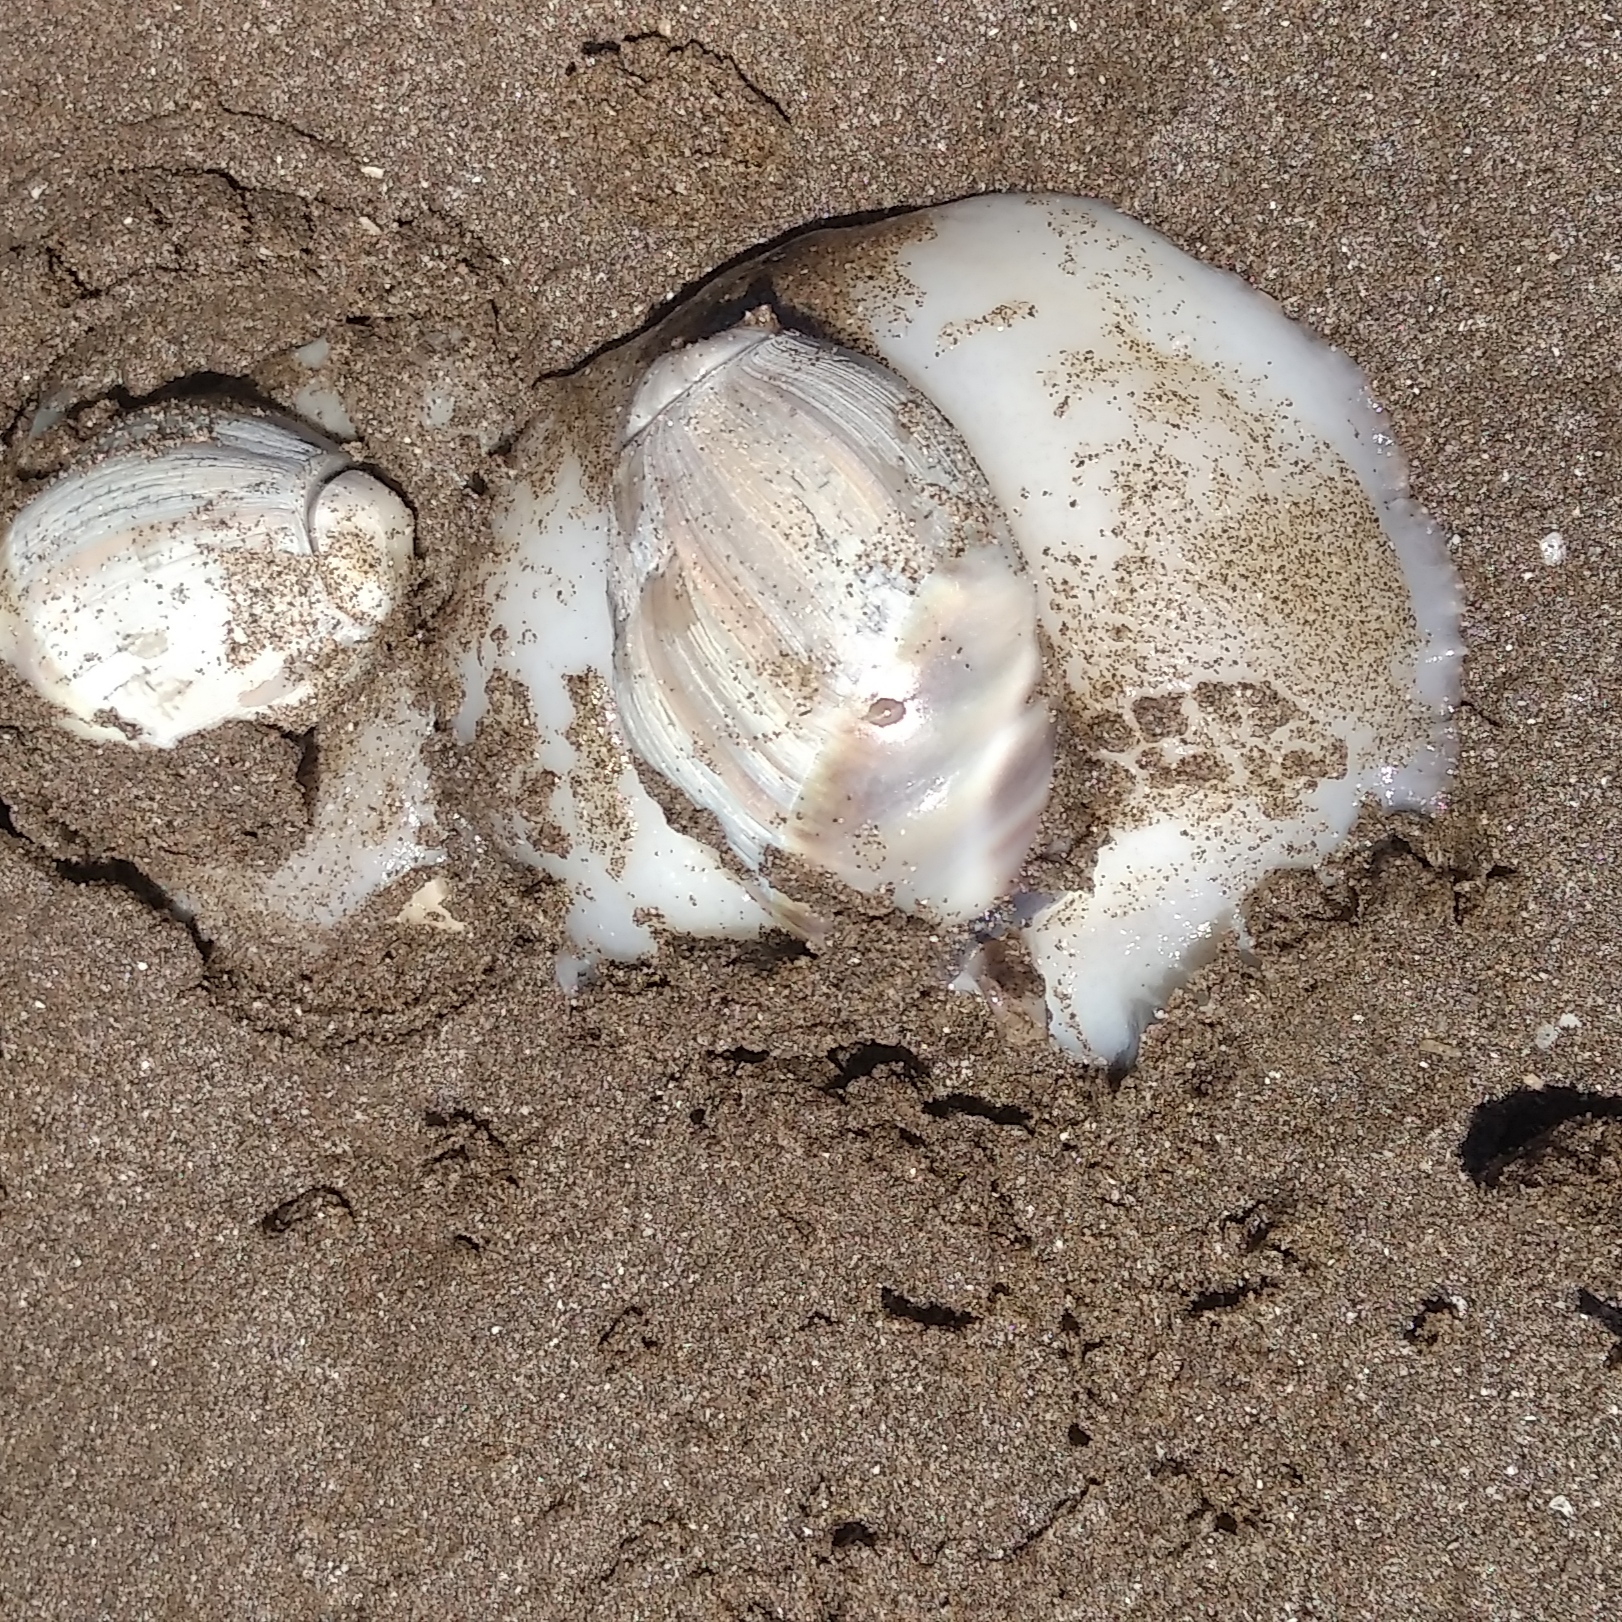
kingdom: Animalia
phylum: Mollusca
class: Gastropoda
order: Neogastropoda
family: Olividae
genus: Olivancillaria
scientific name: Olivancillaria auricularia
